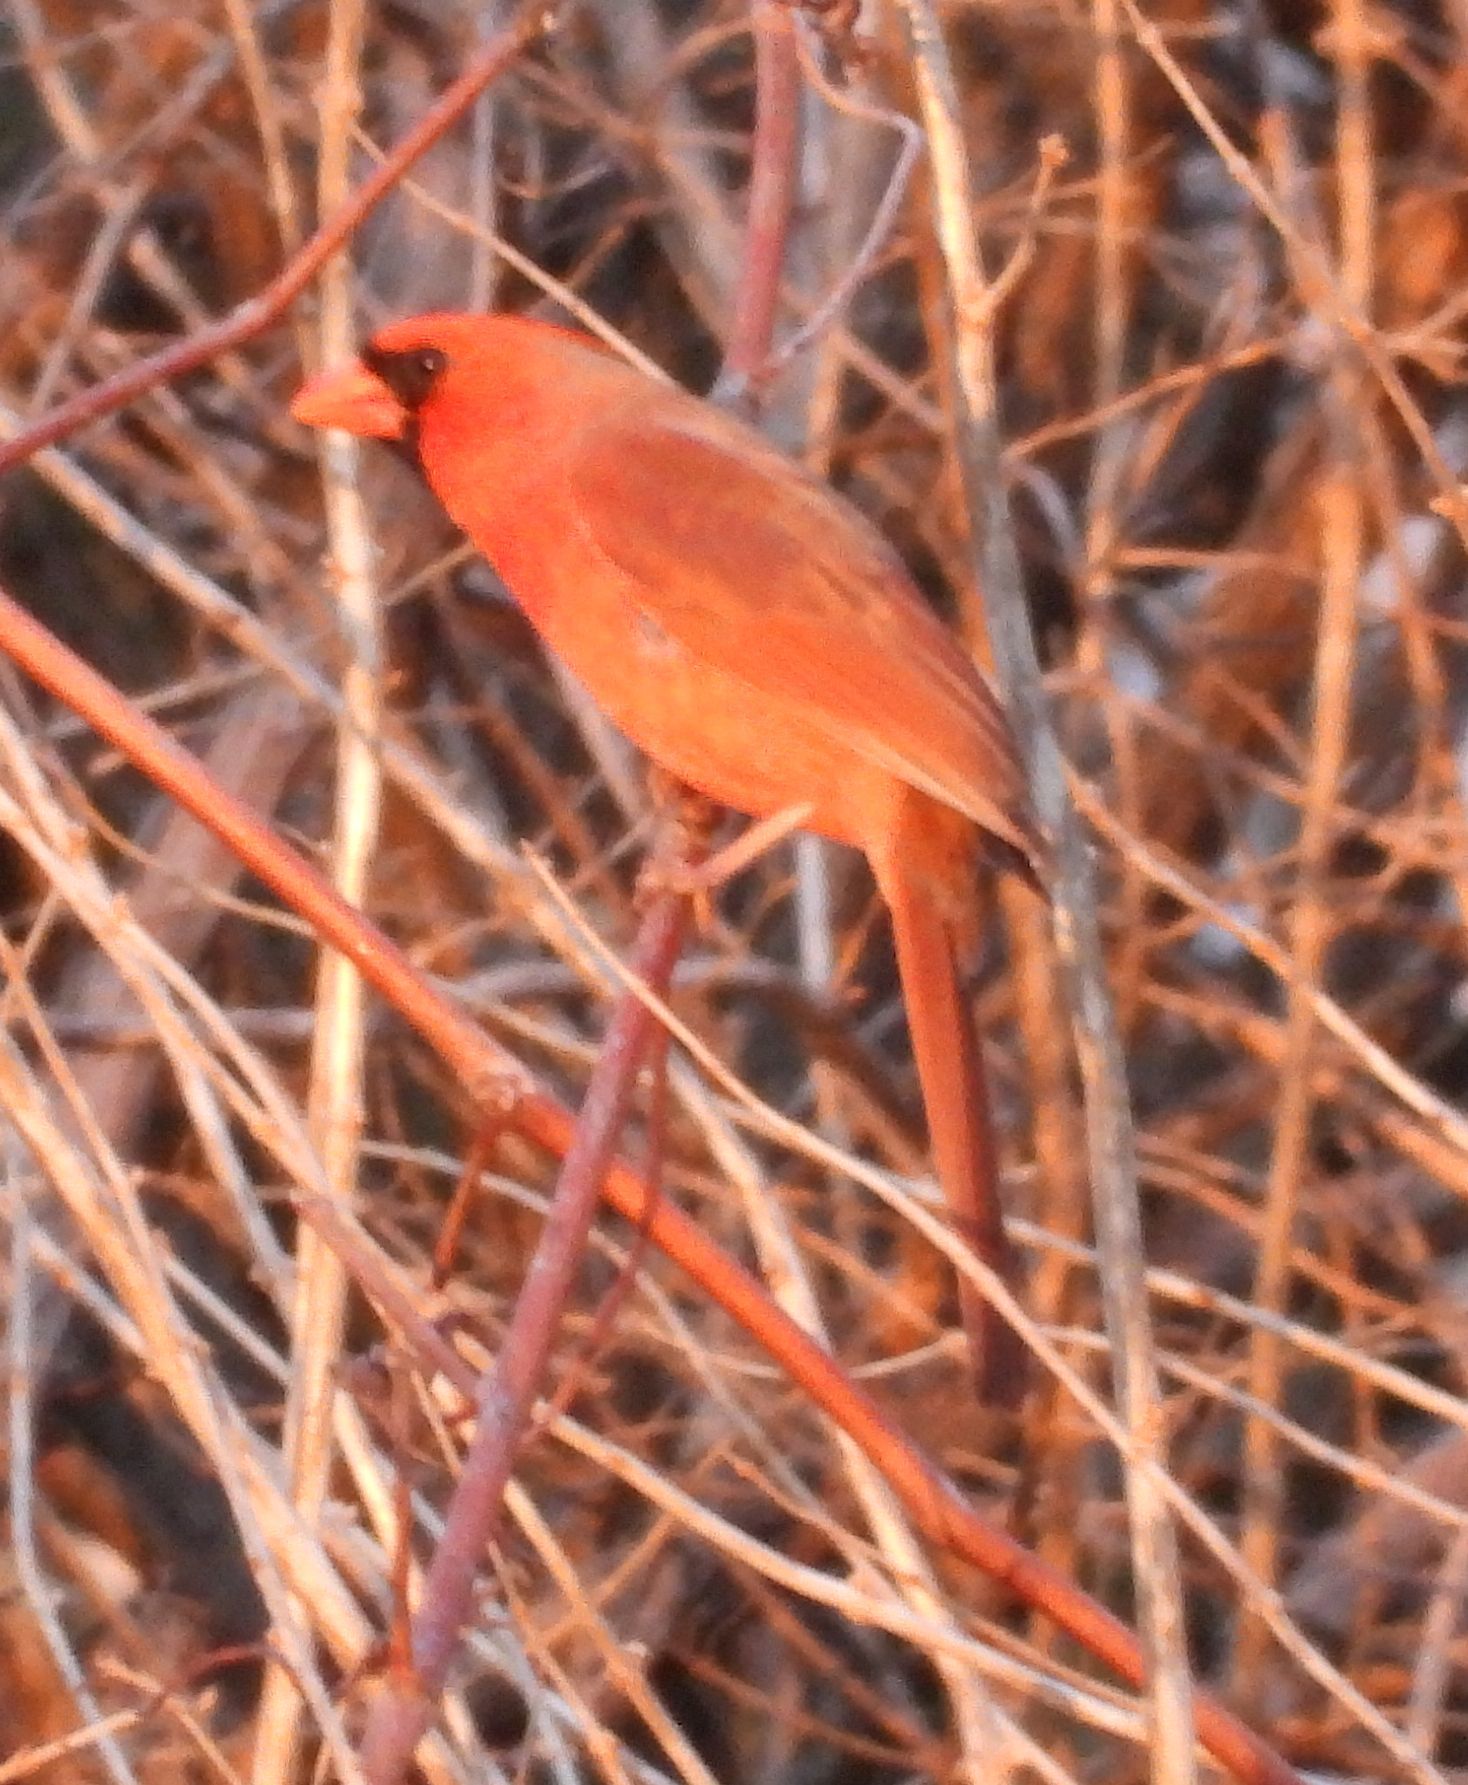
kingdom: Animalia
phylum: Chordata
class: Aves
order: Passeriformes
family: Cardinalidae
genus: Cardinalis
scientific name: Cardinalis cardinalis
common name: Northern cardinal
